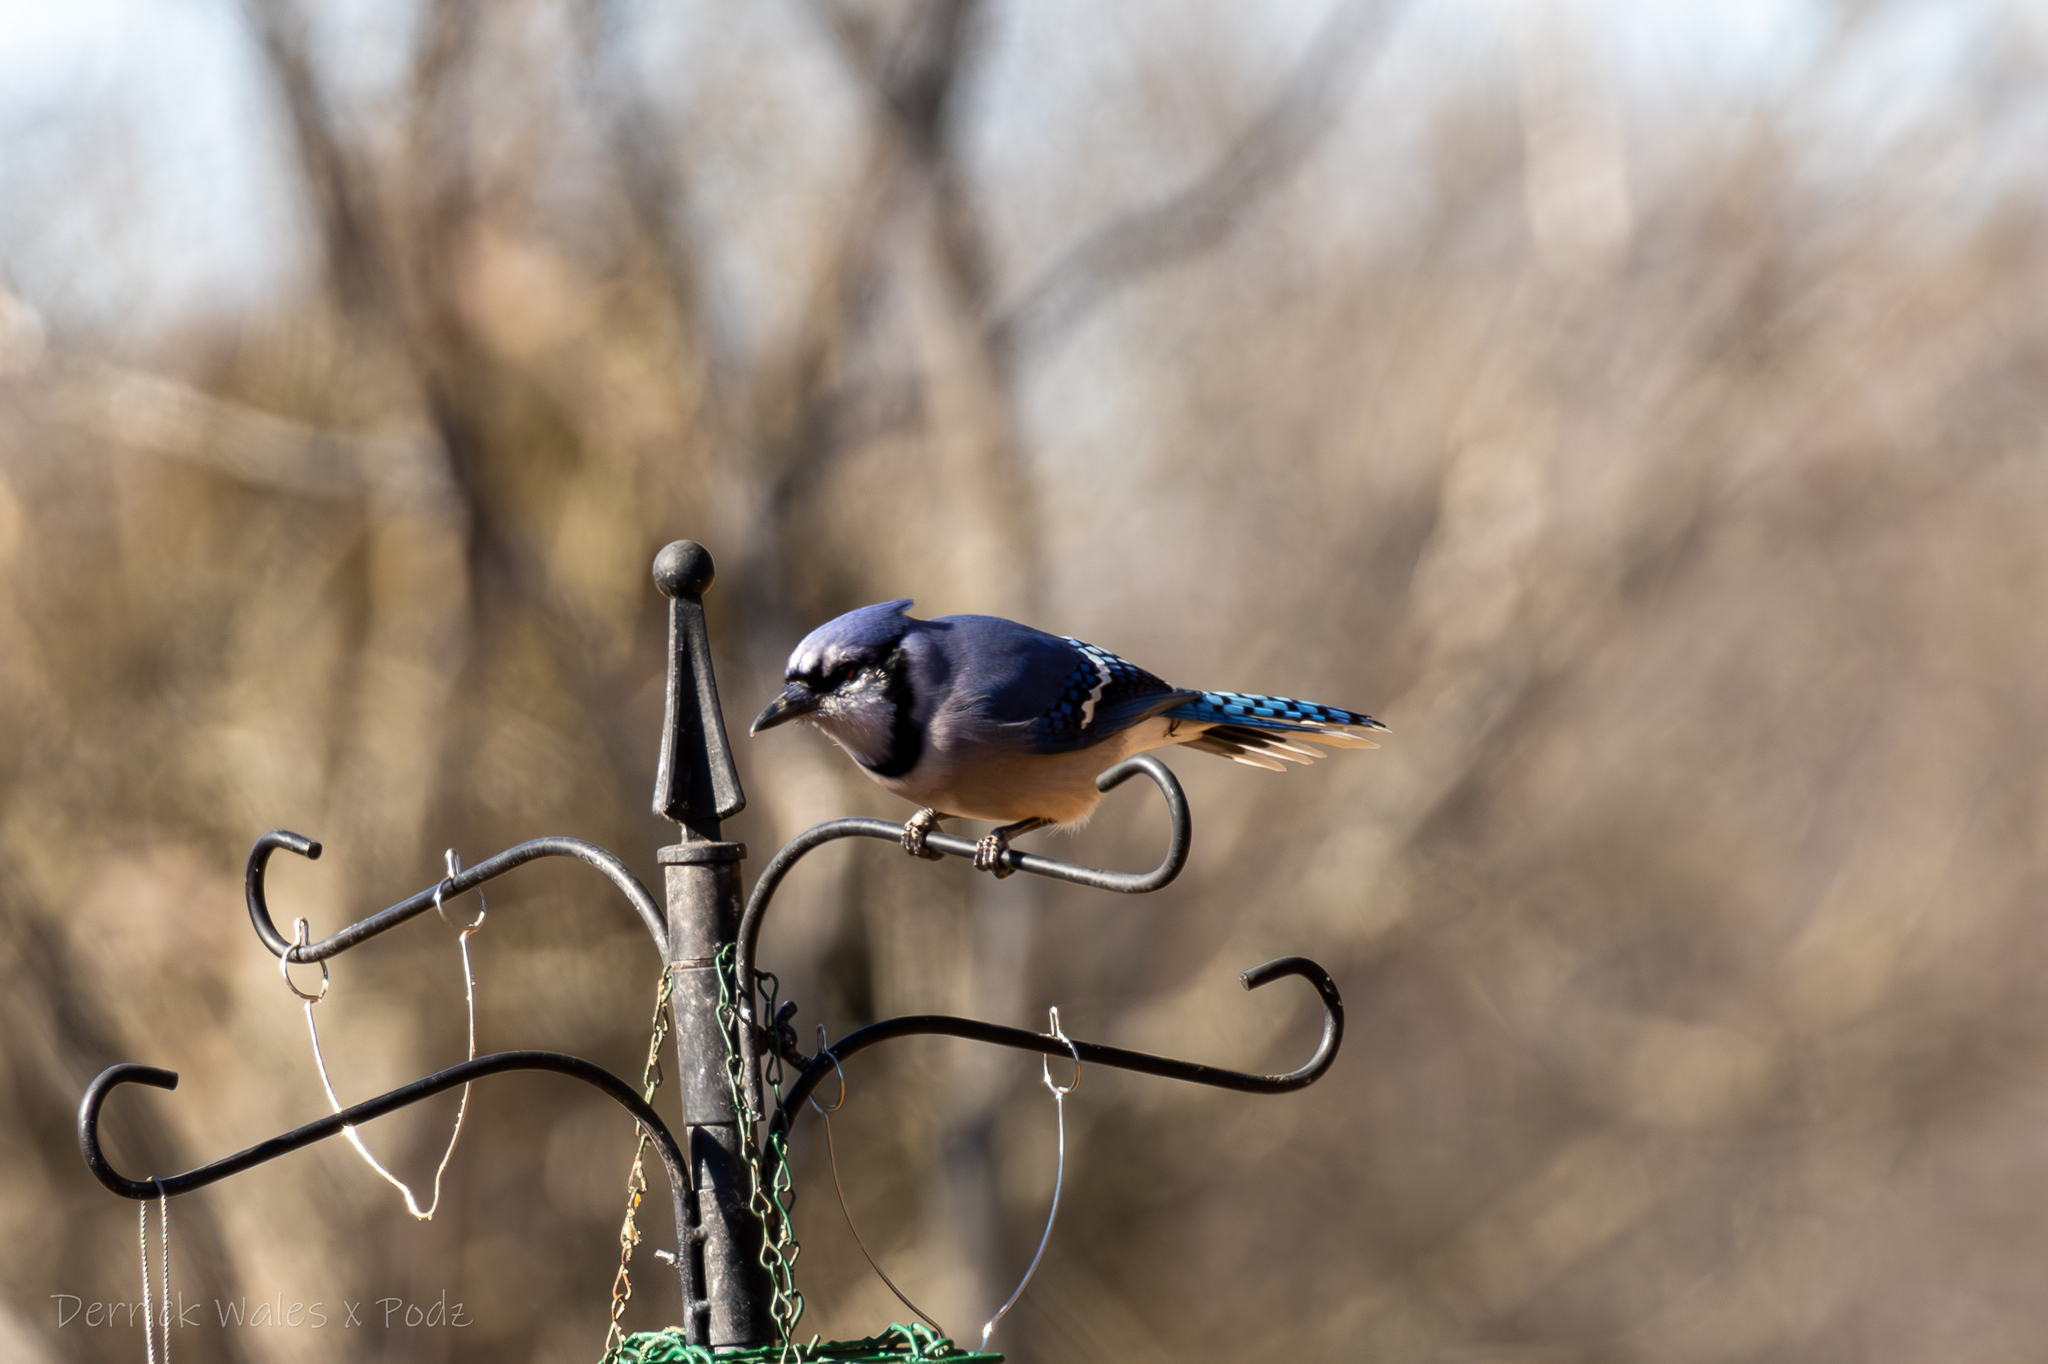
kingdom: Animalia
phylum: Chordata
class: Aves
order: Passeriformes
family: Corvidae
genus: Cyanocitta
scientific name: Cyanocitta cristata
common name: Blue jay
